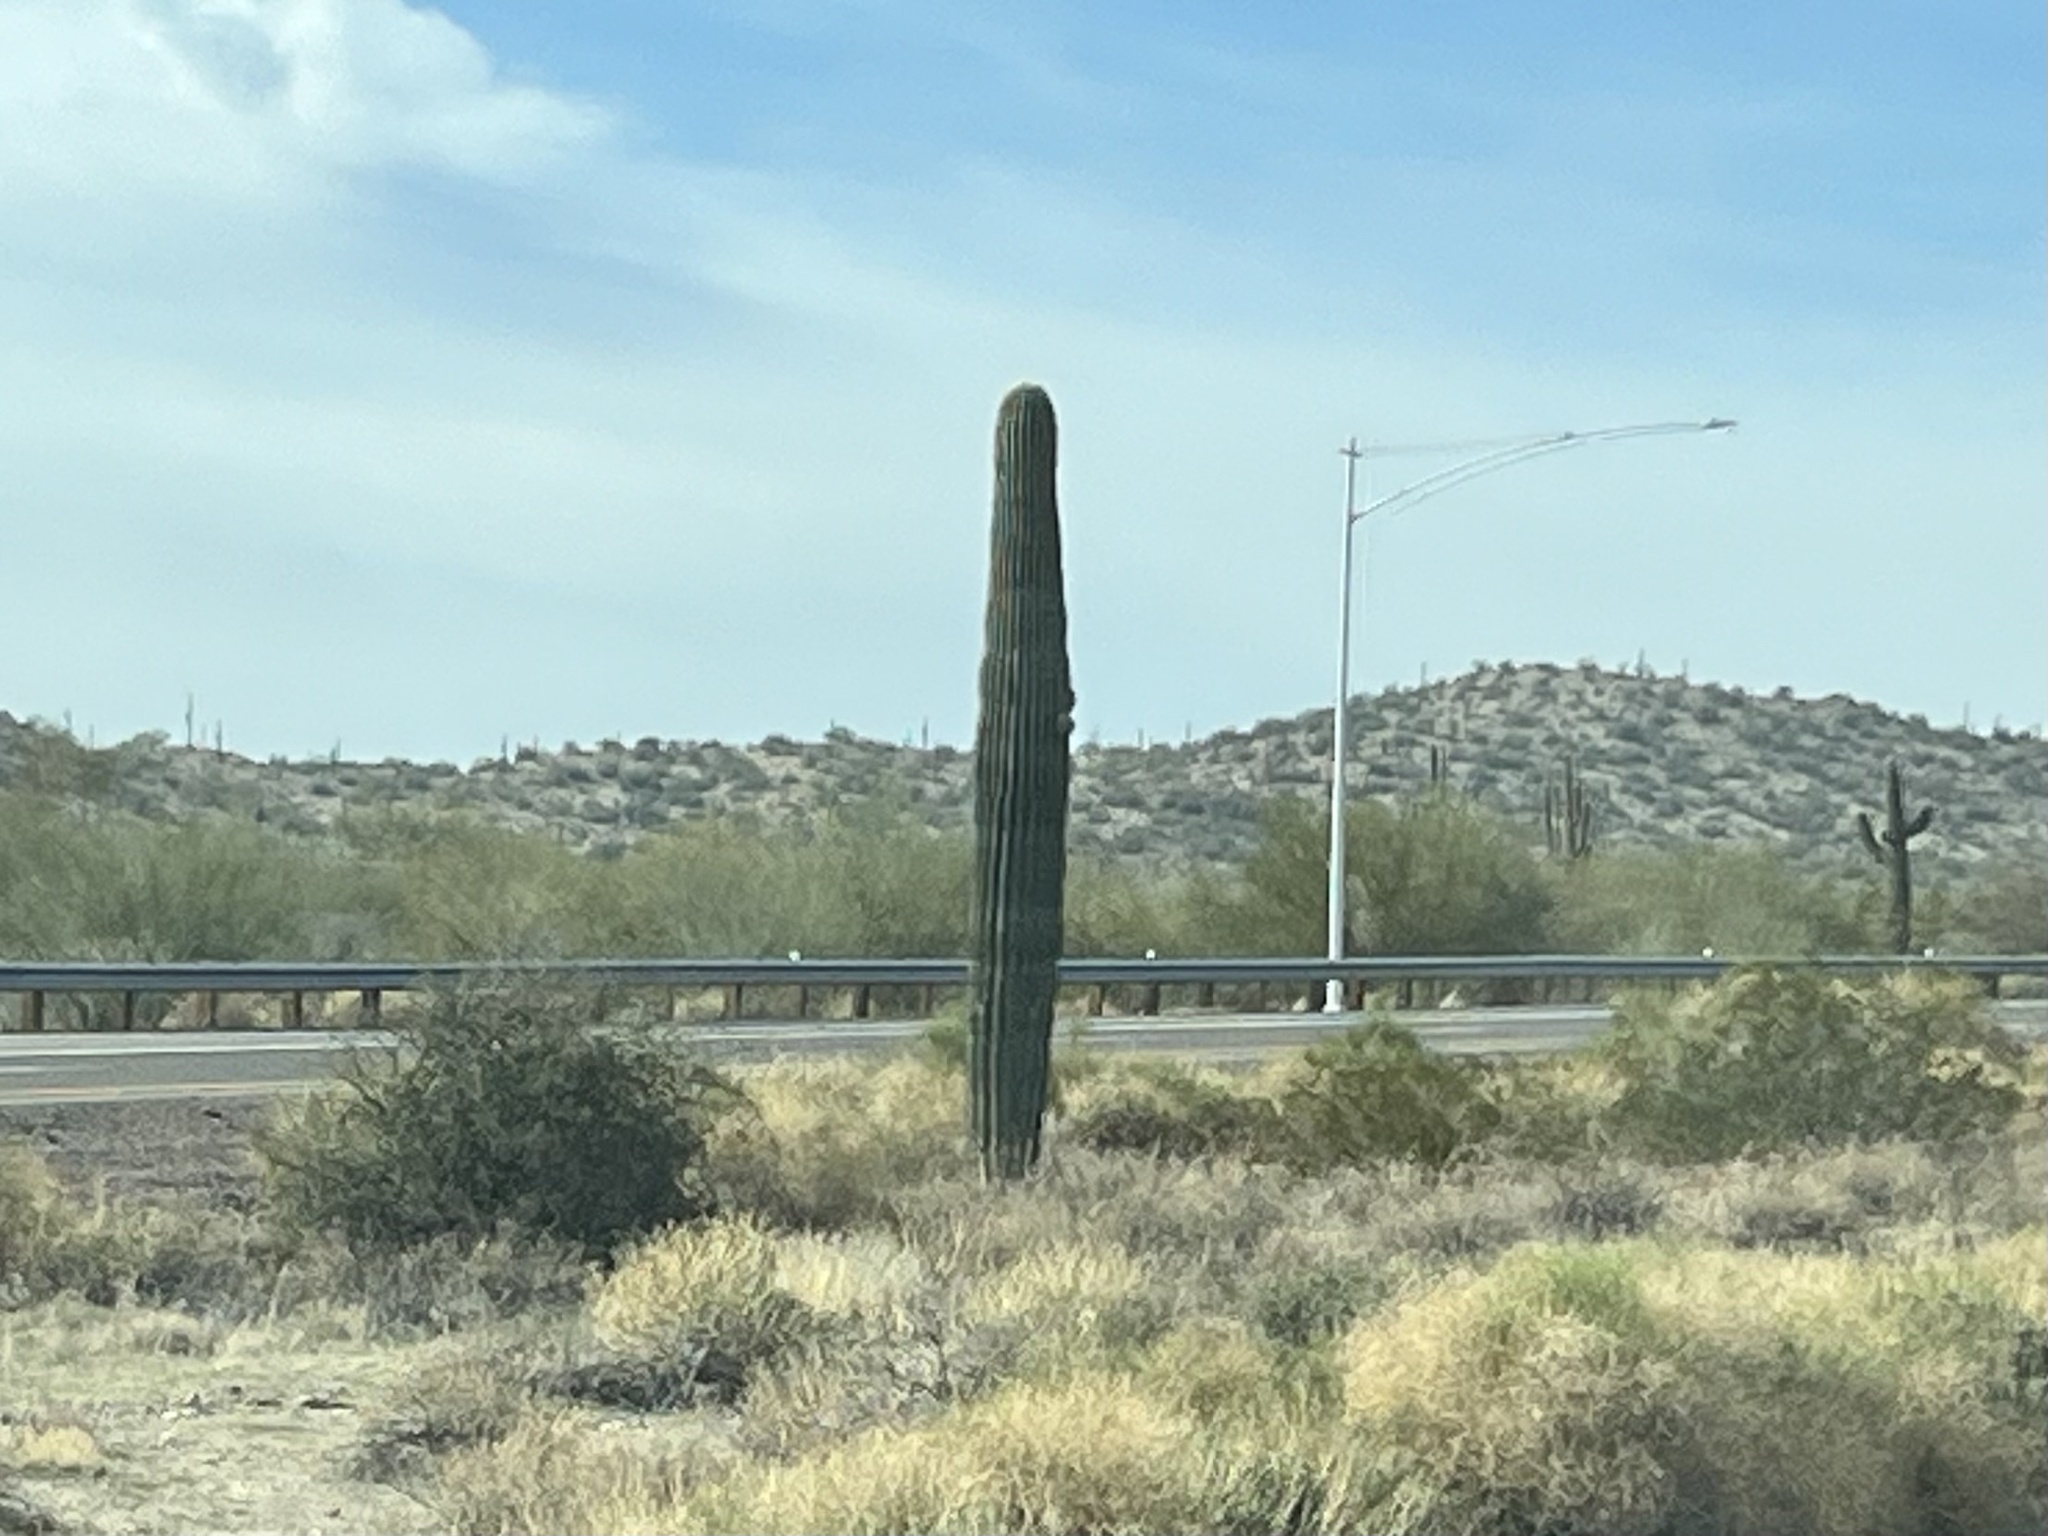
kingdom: Plantae
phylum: Tracheophyta
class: Magnoliopsida
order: Caryophyllales
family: Cactaceae
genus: Carnegiea
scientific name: Carnegiea gigantea
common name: Saguaro
